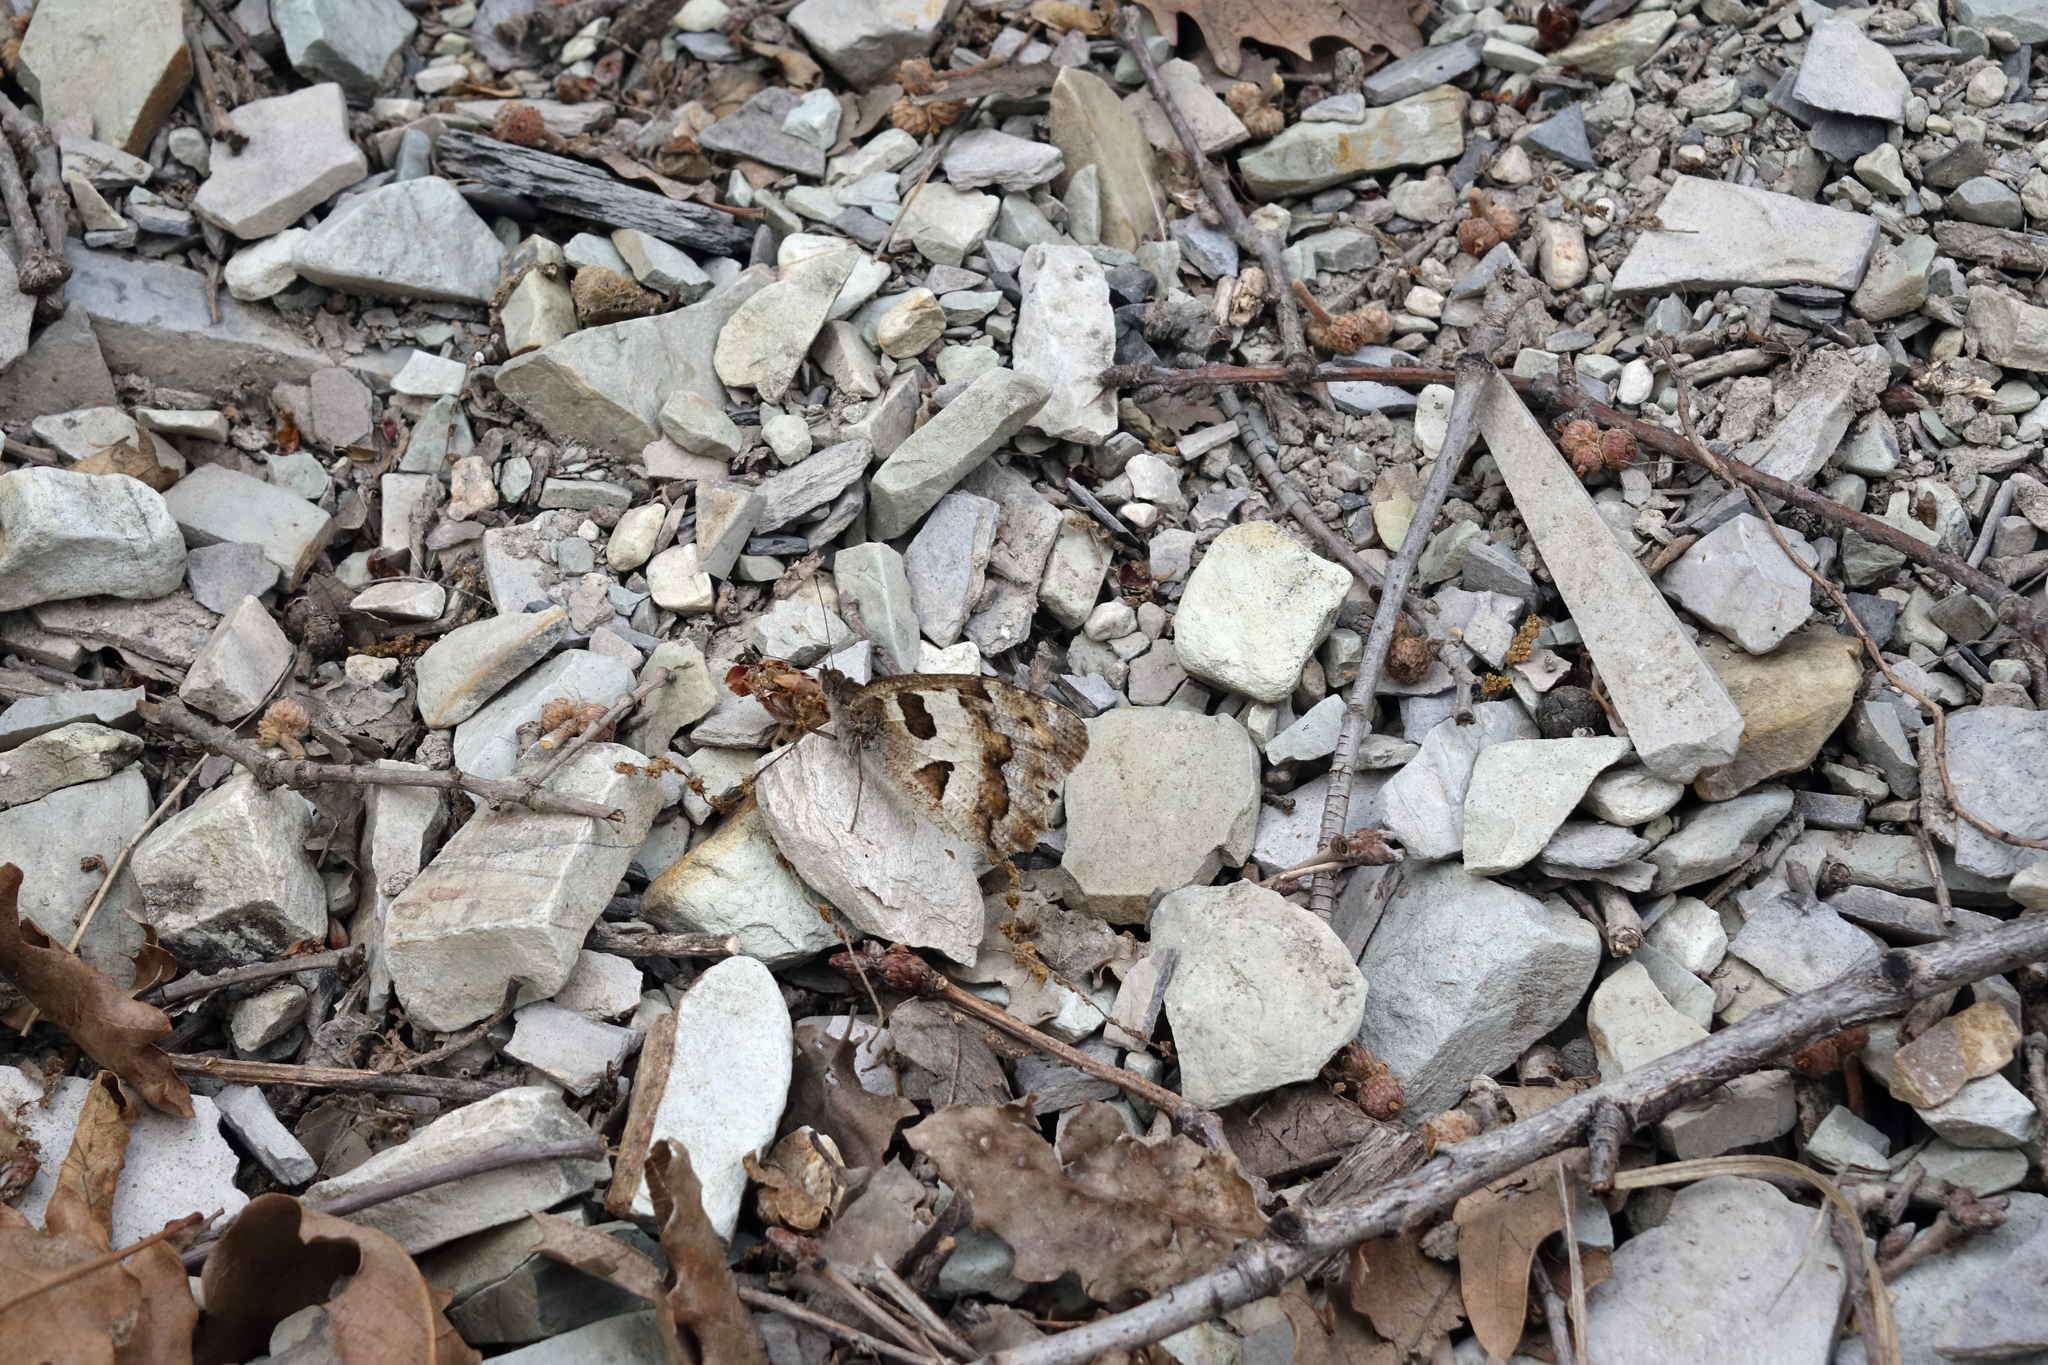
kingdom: Animalia
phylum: Arthropoda
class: Insecta
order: Lepidoptera
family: Nymphalidae
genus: Satyrus
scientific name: Satyrus briseis
